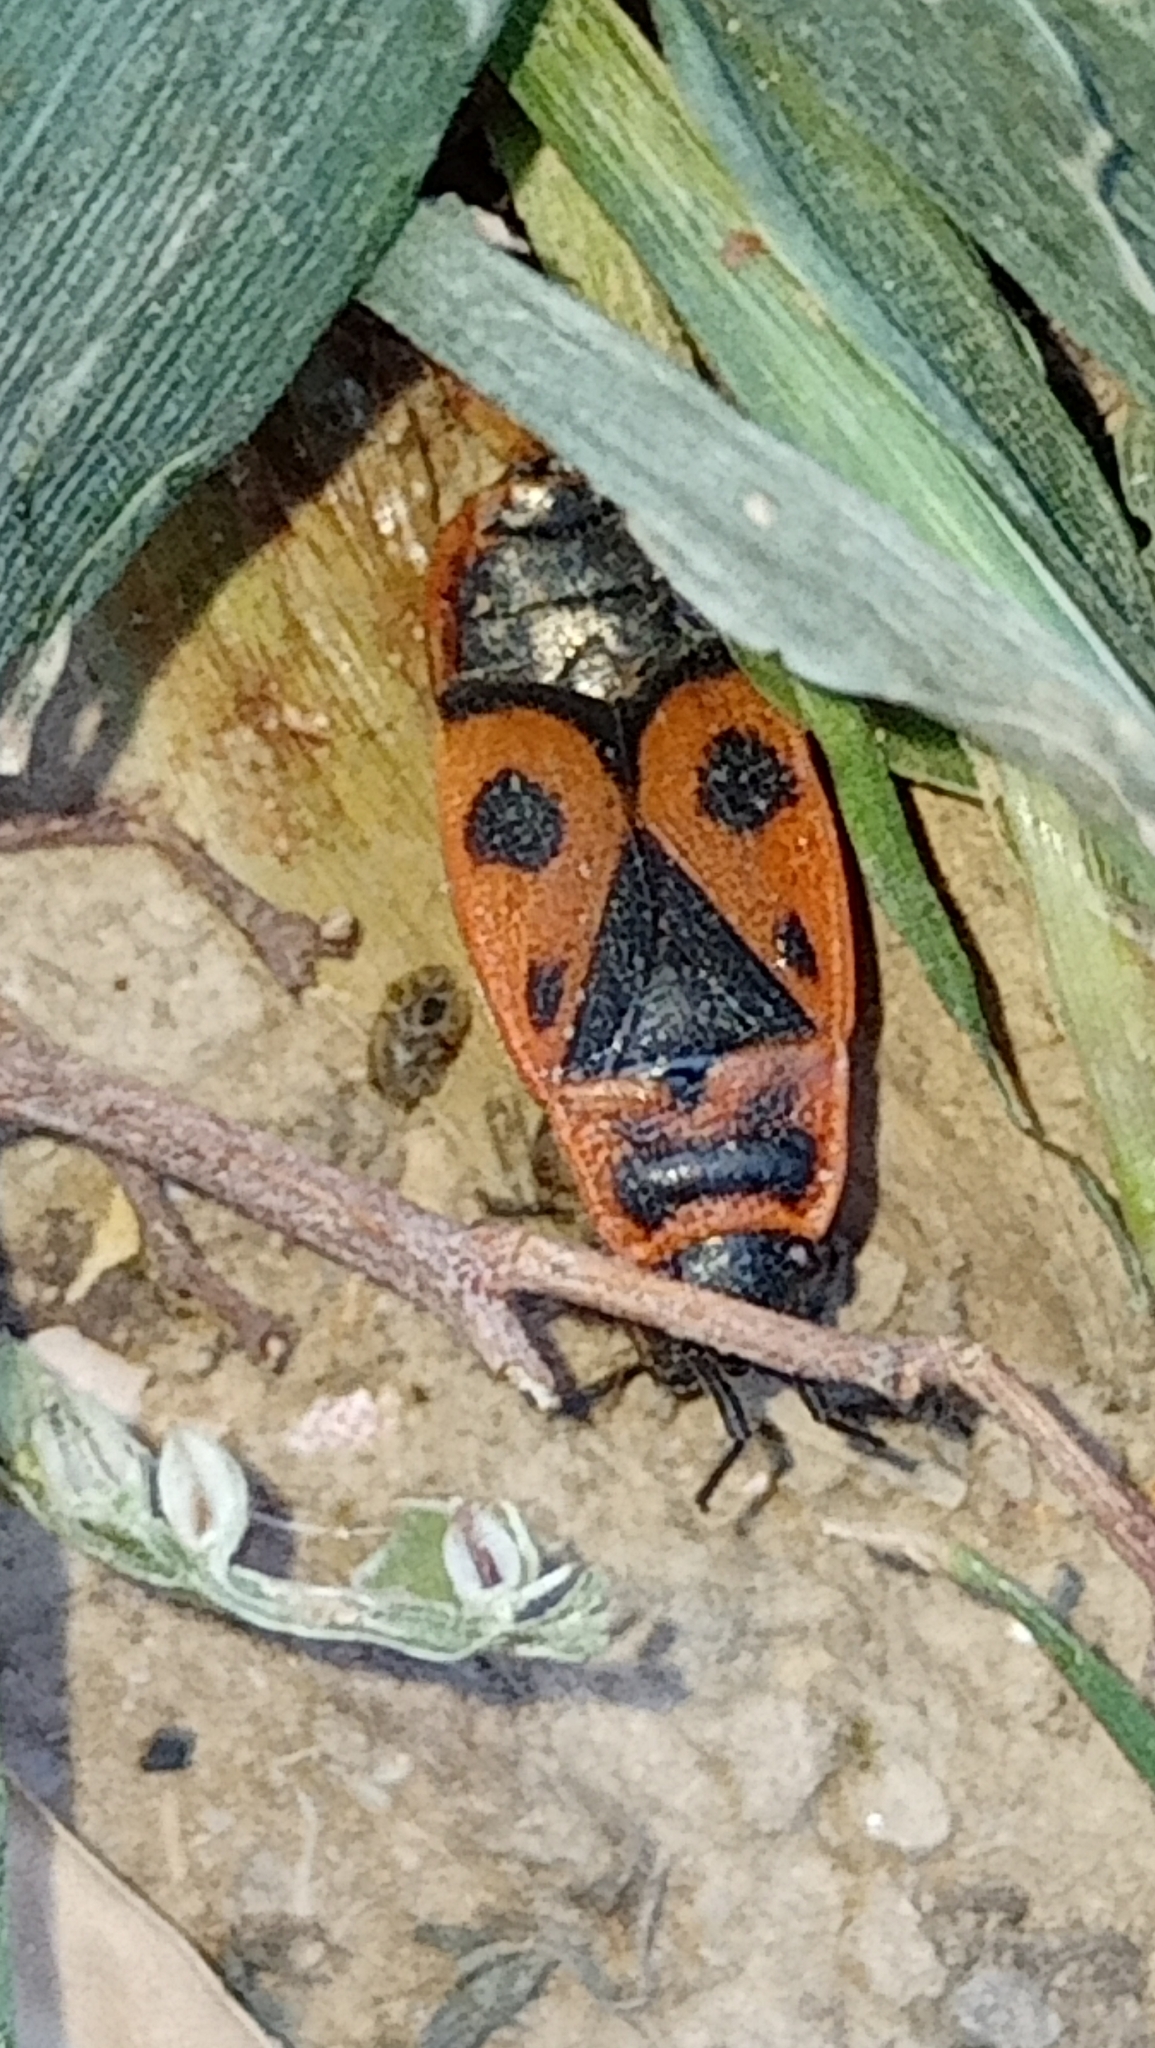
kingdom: Animalia
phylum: Arthropoda
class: Insecta
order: Hemiptera
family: Pyrrhocoridae
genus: Pyrrhocoris
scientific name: Pyrrhocoris apterus
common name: Firebug
